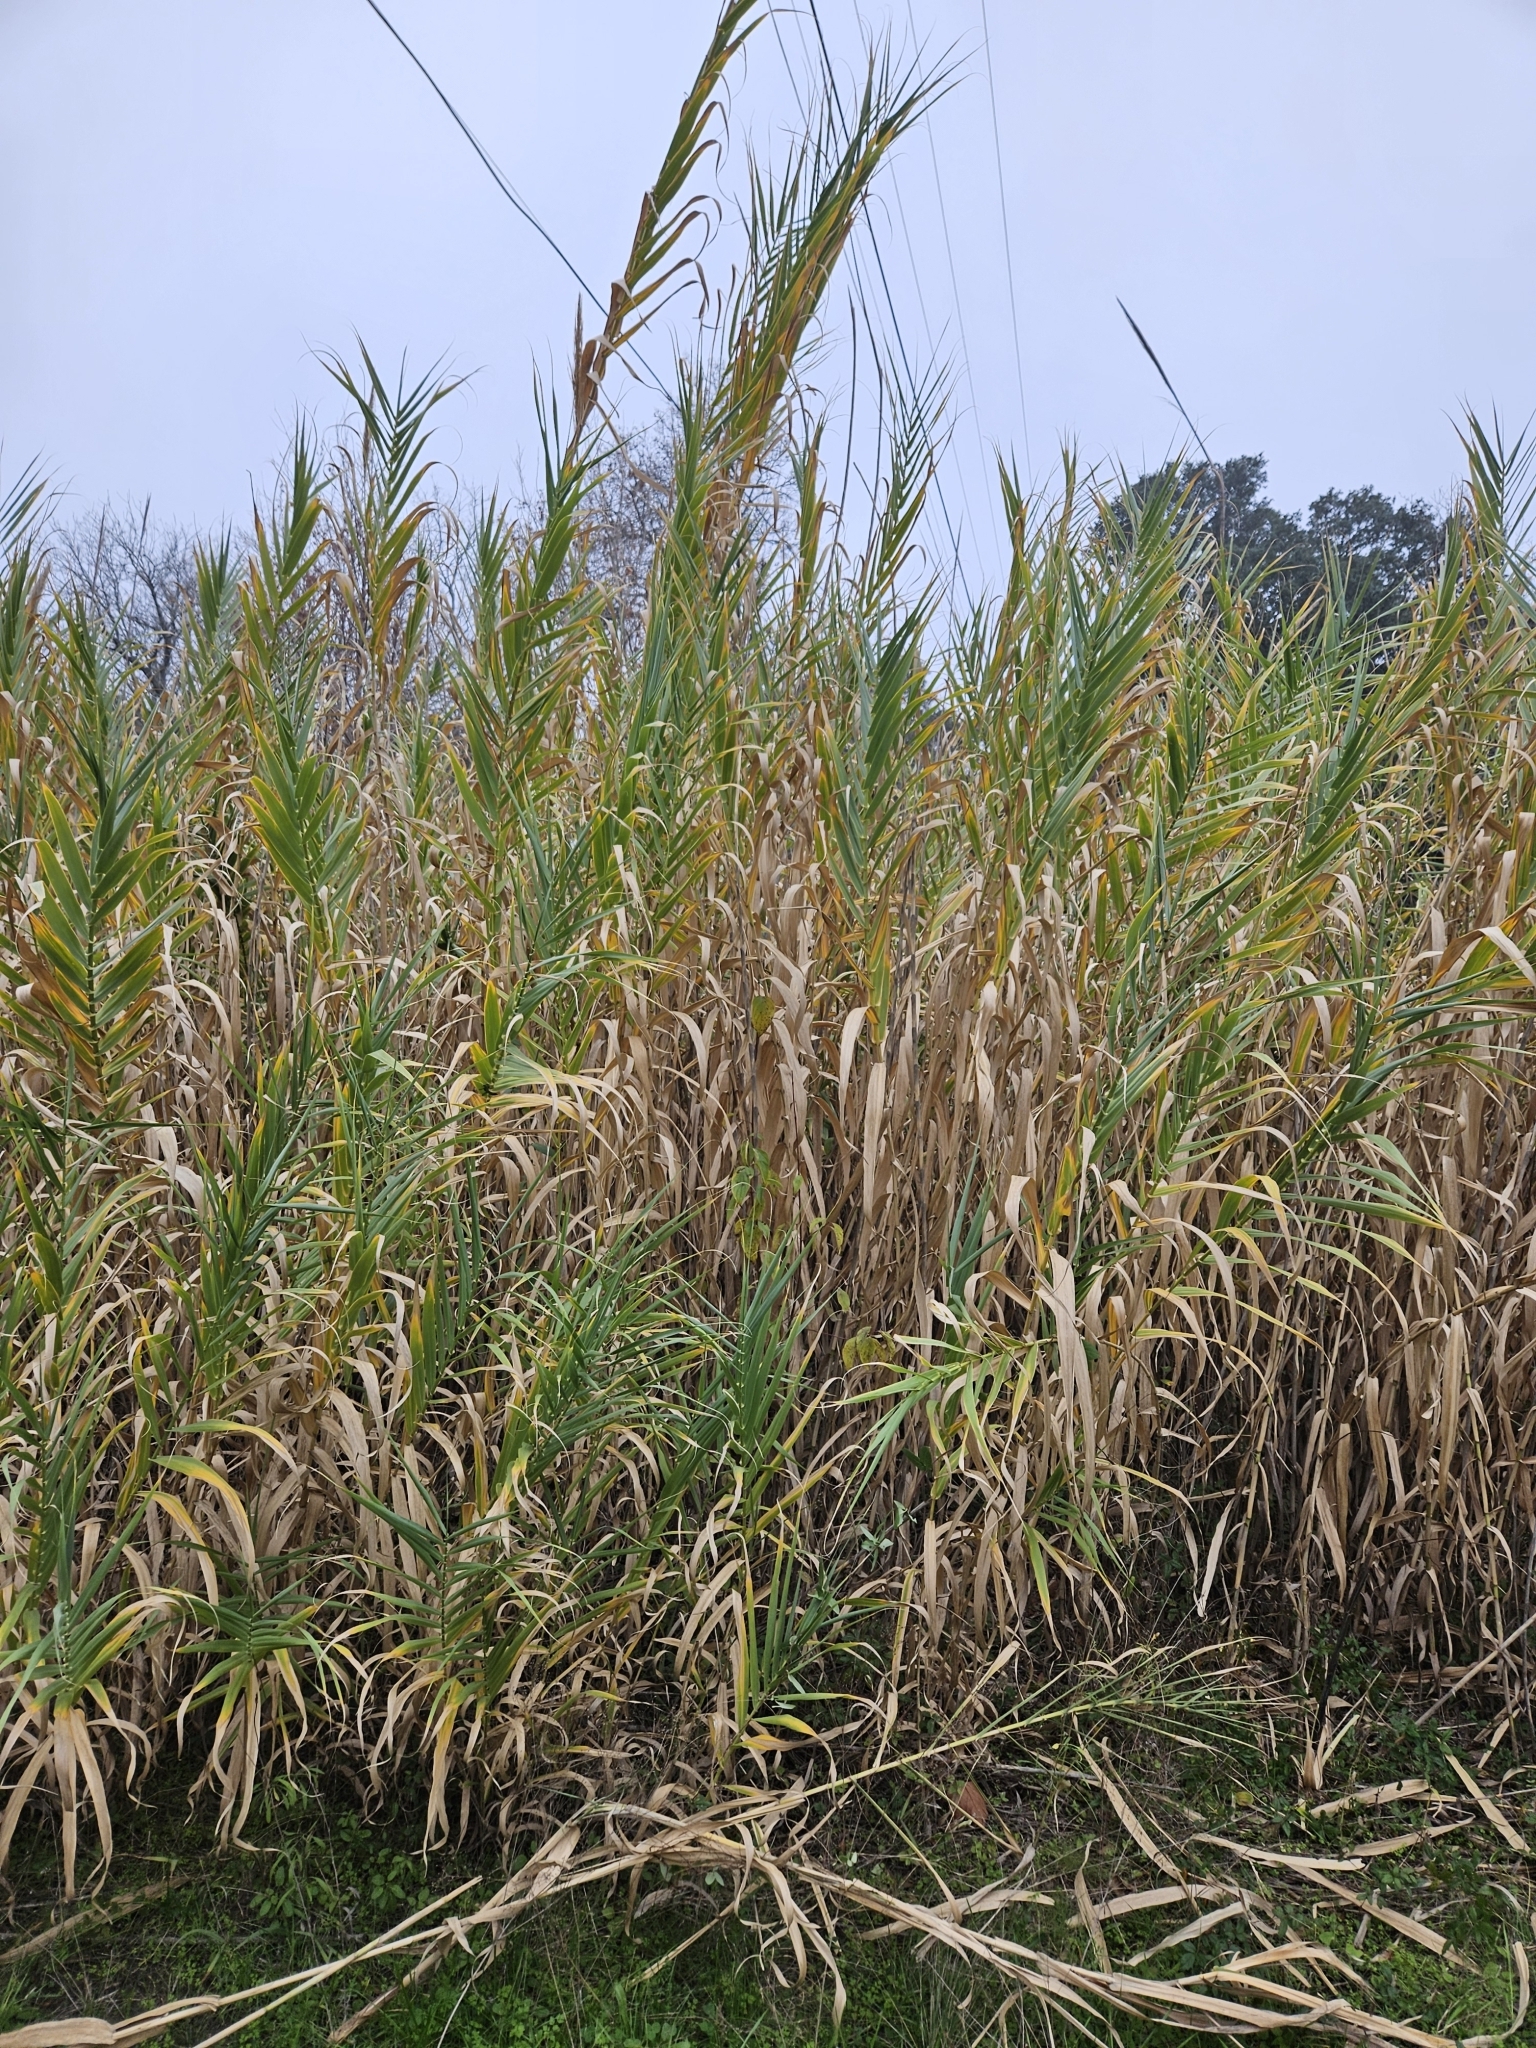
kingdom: Plantae
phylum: Tracheophyta
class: Liliopsida
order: Poales
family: Poaceae
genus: Arundo
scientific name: Arundo donax
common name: Giant reed
